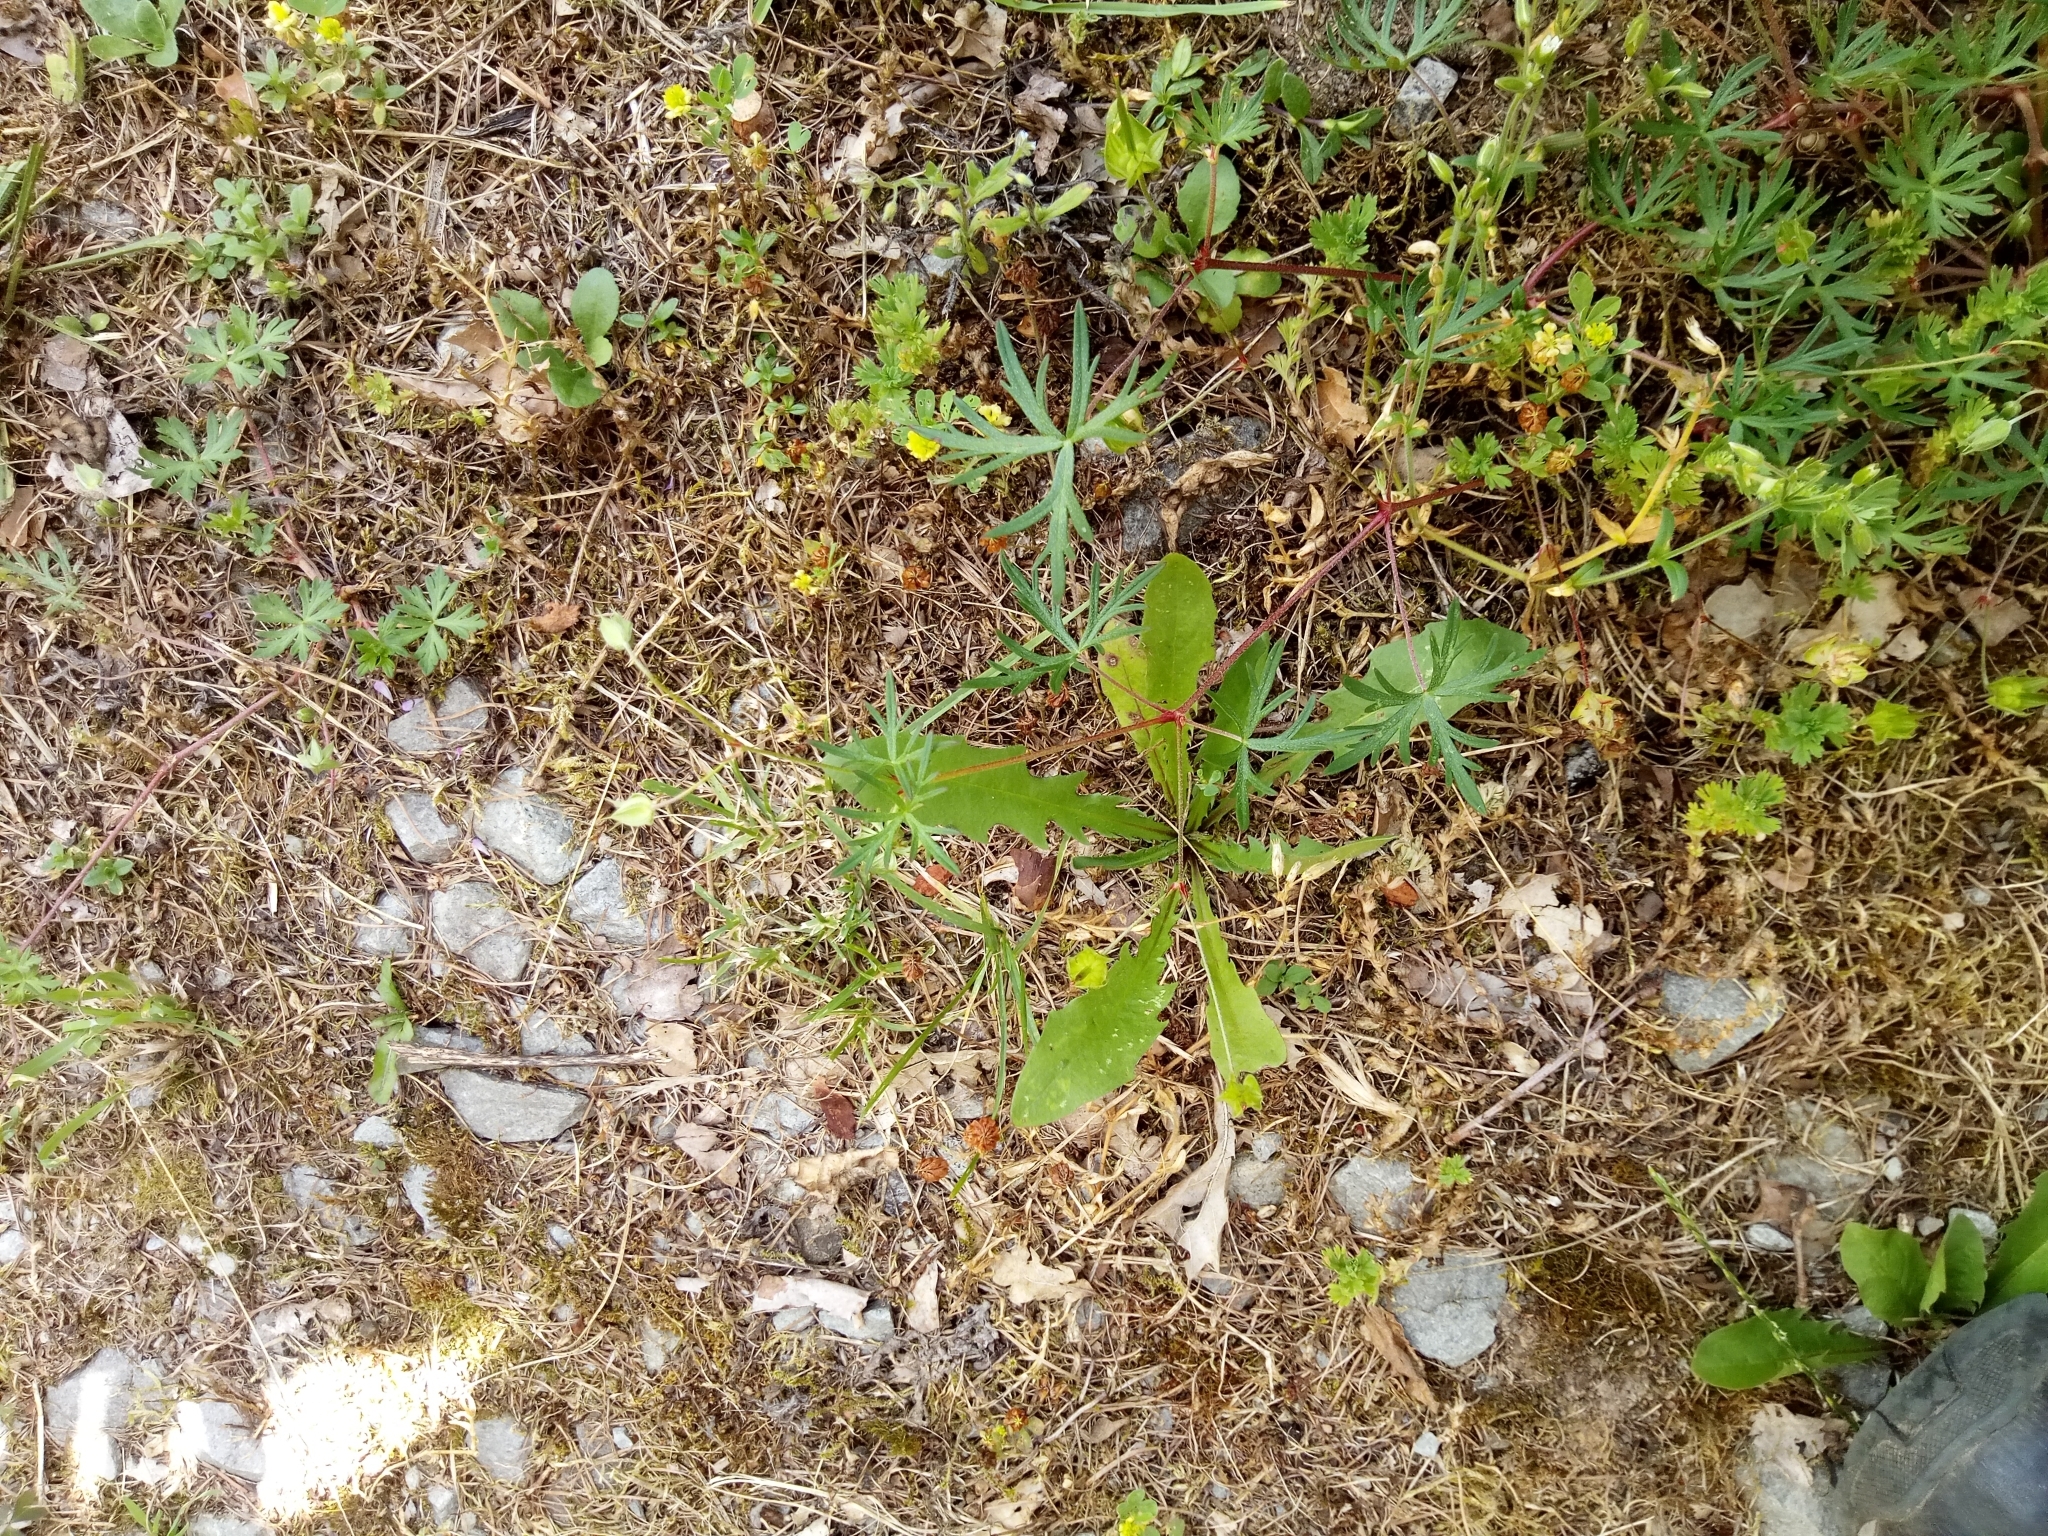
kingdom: Plantae
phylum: Tracheophyta
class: Magnoliopsida
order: Geraniales
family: Geraniaceae
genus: Geranium
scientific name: Geranium columbinum
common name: Long-stalked crane's-bill
